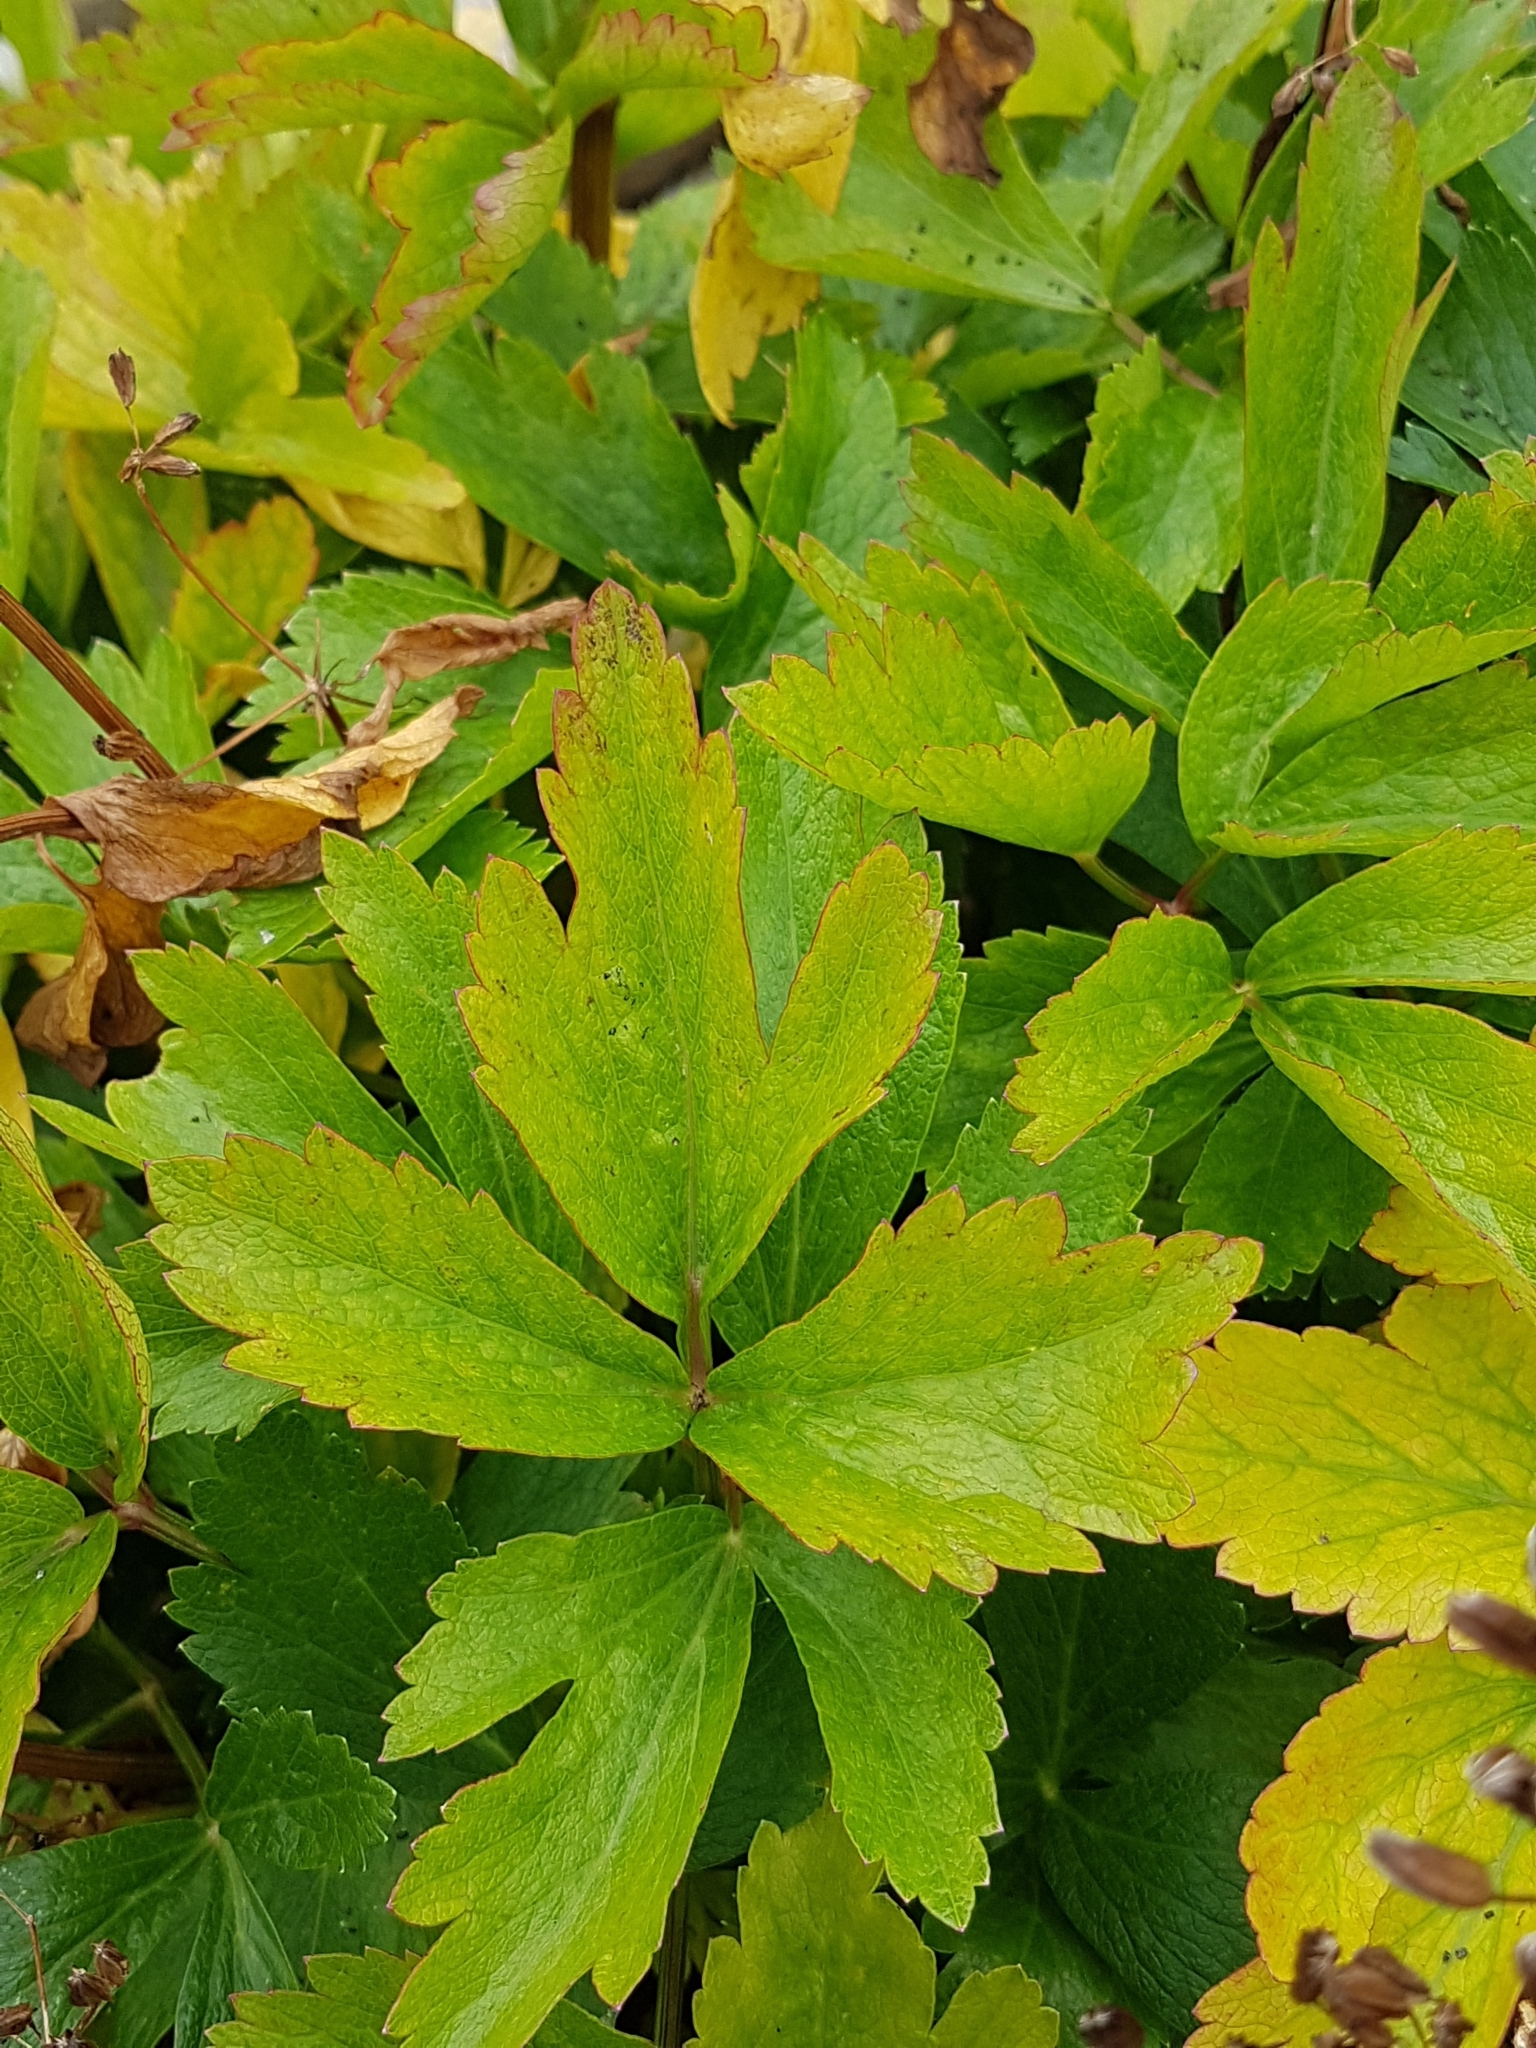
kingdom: Plantae
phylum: Tracheophyta
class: Magnoliopsida
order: Apiales
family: Apiaceae
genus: Ligusticum
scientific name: Ligusticum scothicum
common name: Beach lovage
